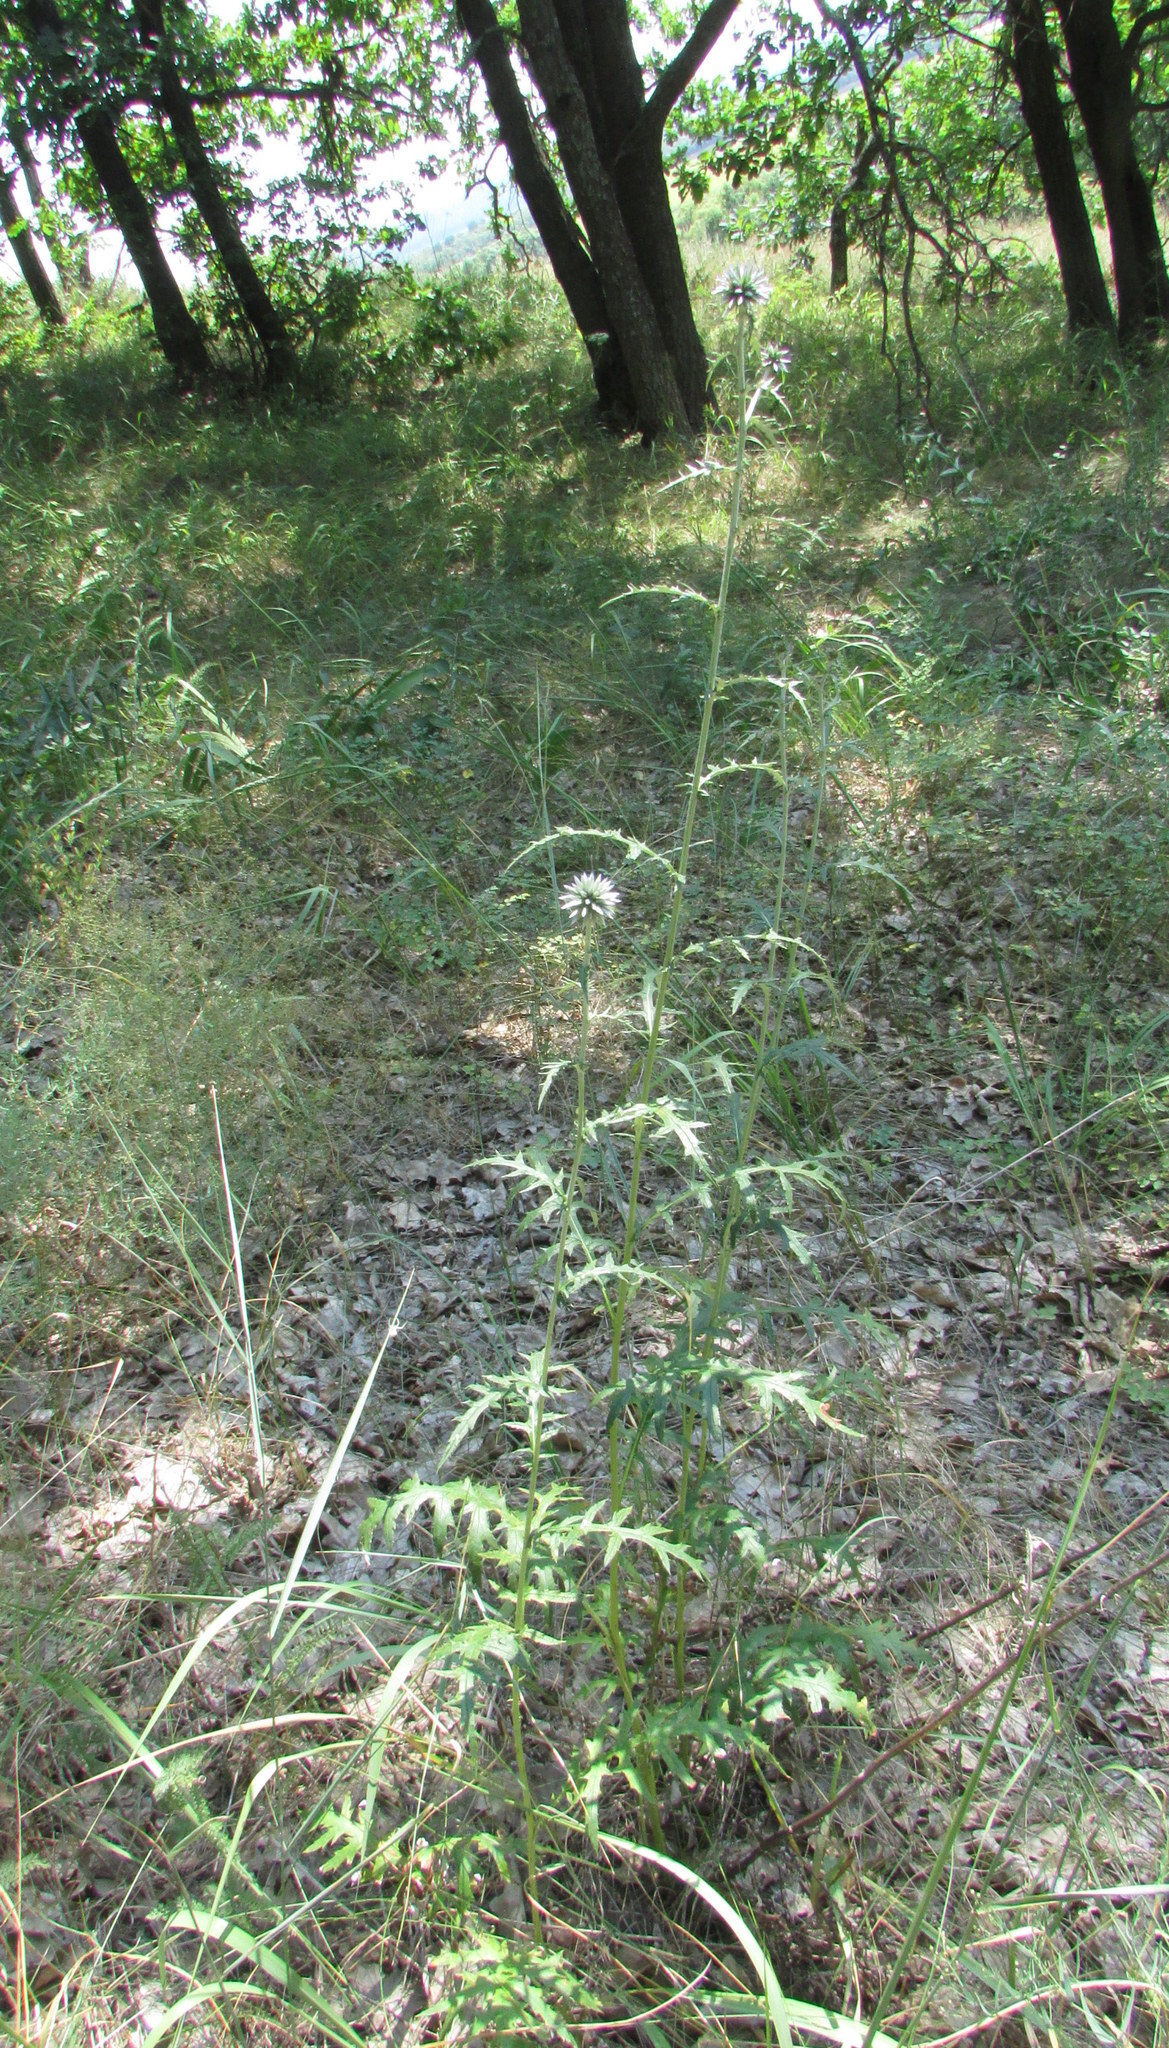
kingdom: Plantae
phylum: Tracheophyta
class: Magnoliopsida
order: Asterales
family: Asteraceae
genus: Echinops
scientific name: Echinops ritro
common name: Globe thistle
